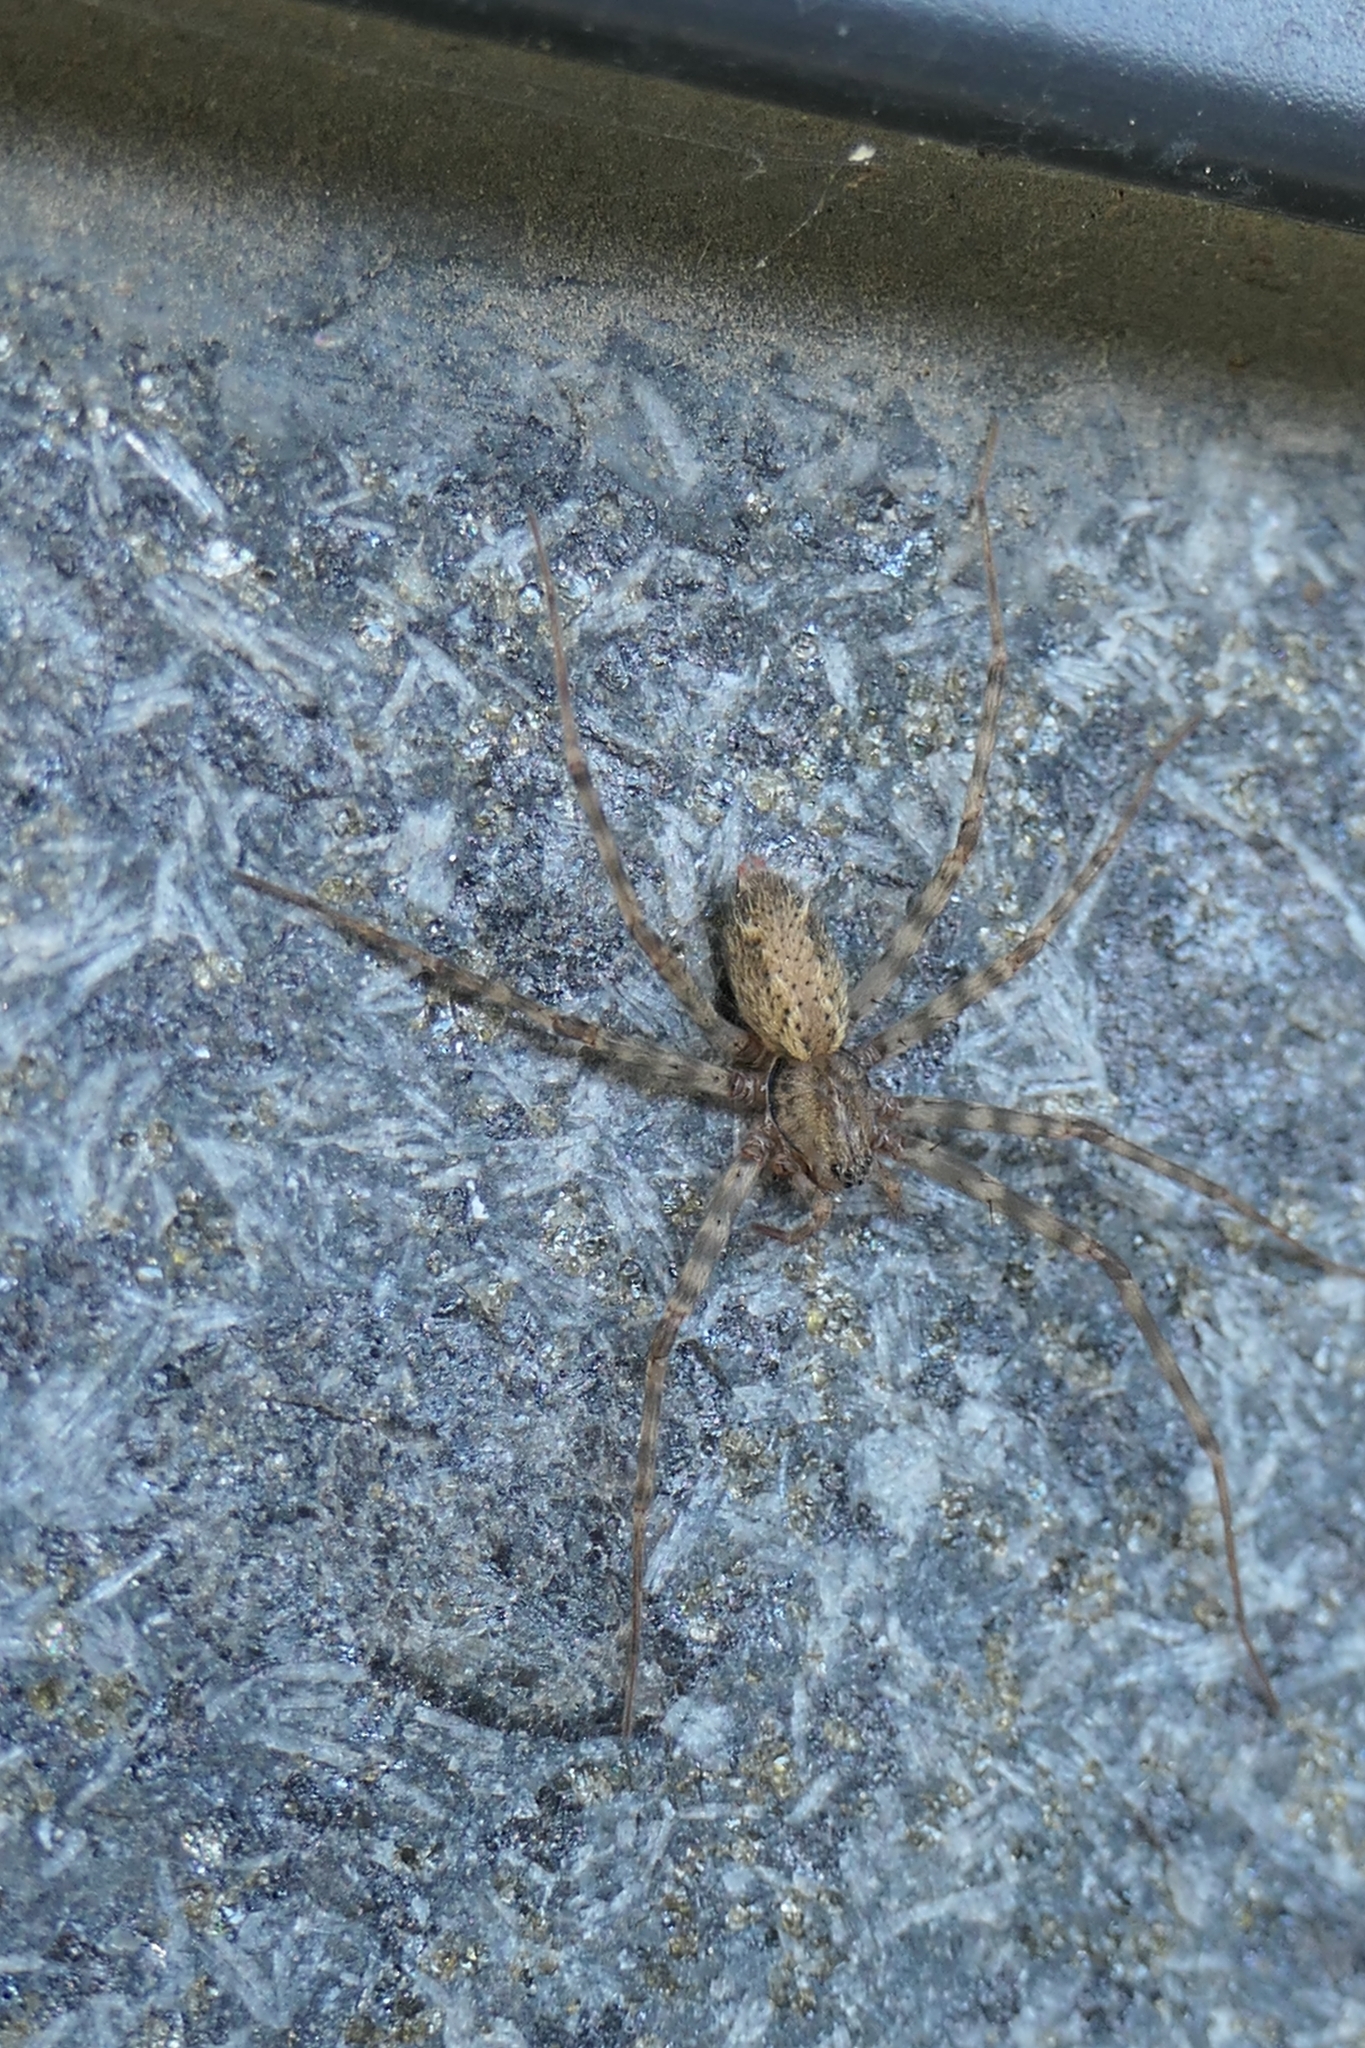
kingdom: Animalia
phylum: Arthropoda
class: Arachnida
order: Araneae
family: Stiphidiidae
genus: Stiphidion
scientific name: Stiphidion facetum
